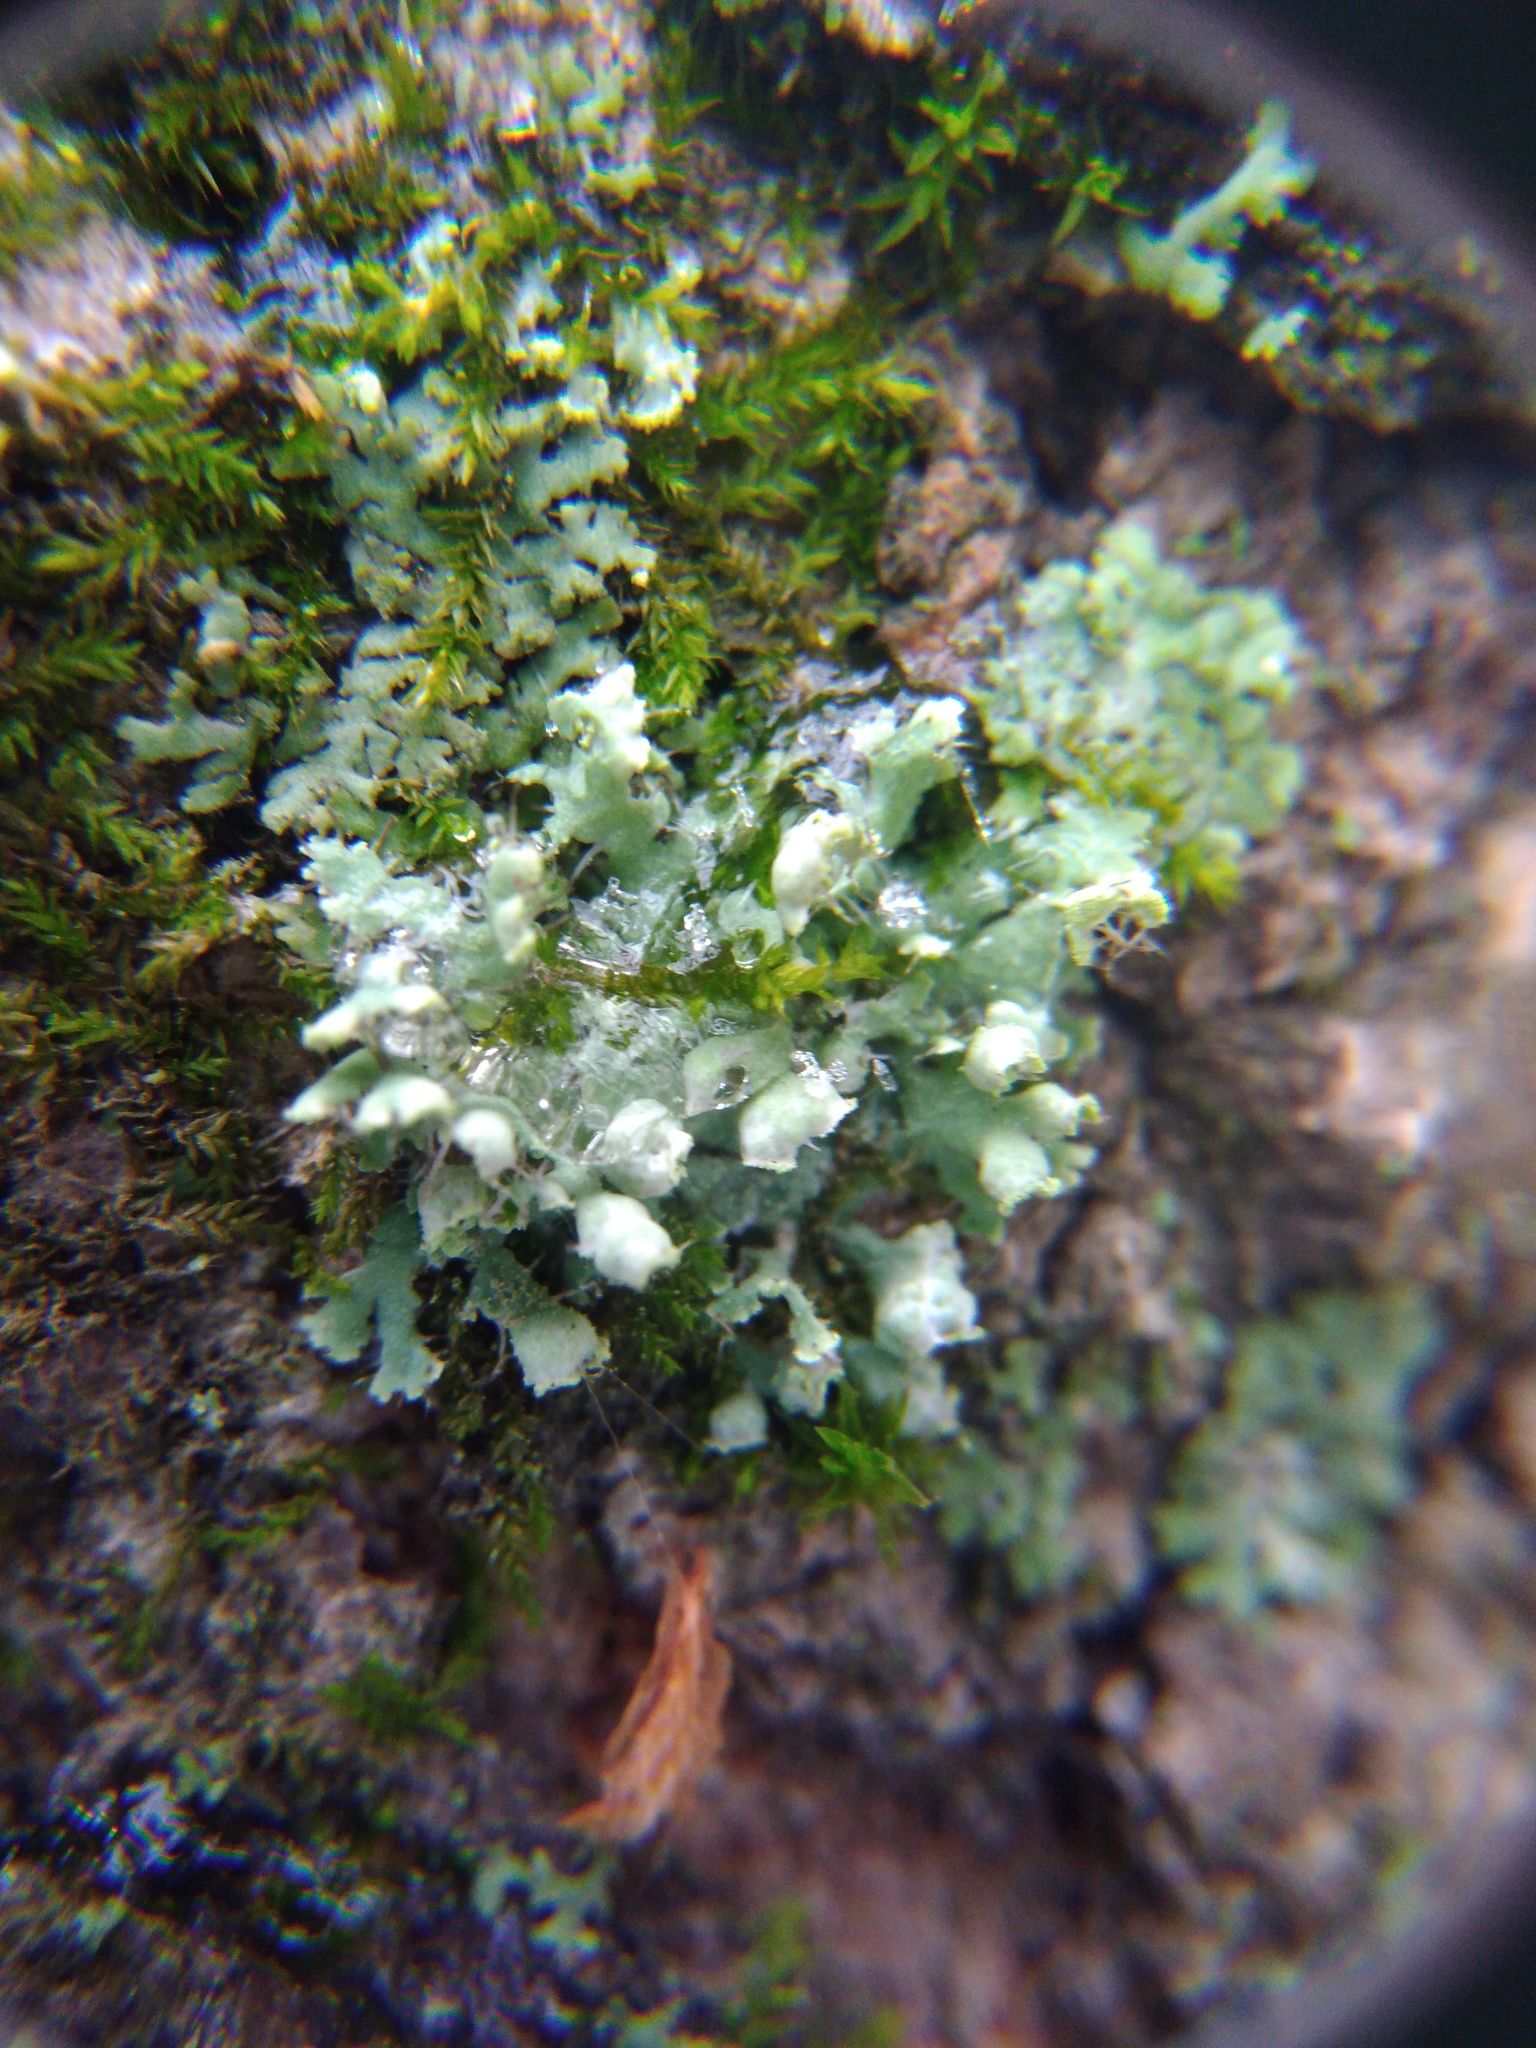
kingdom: Fungi
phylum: Ascomycota
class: Lecanoromycetes
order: Caliciales
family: Physciaceae
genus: Physcia
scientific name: Physcia adscendens
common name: Hooded rosette lichen
